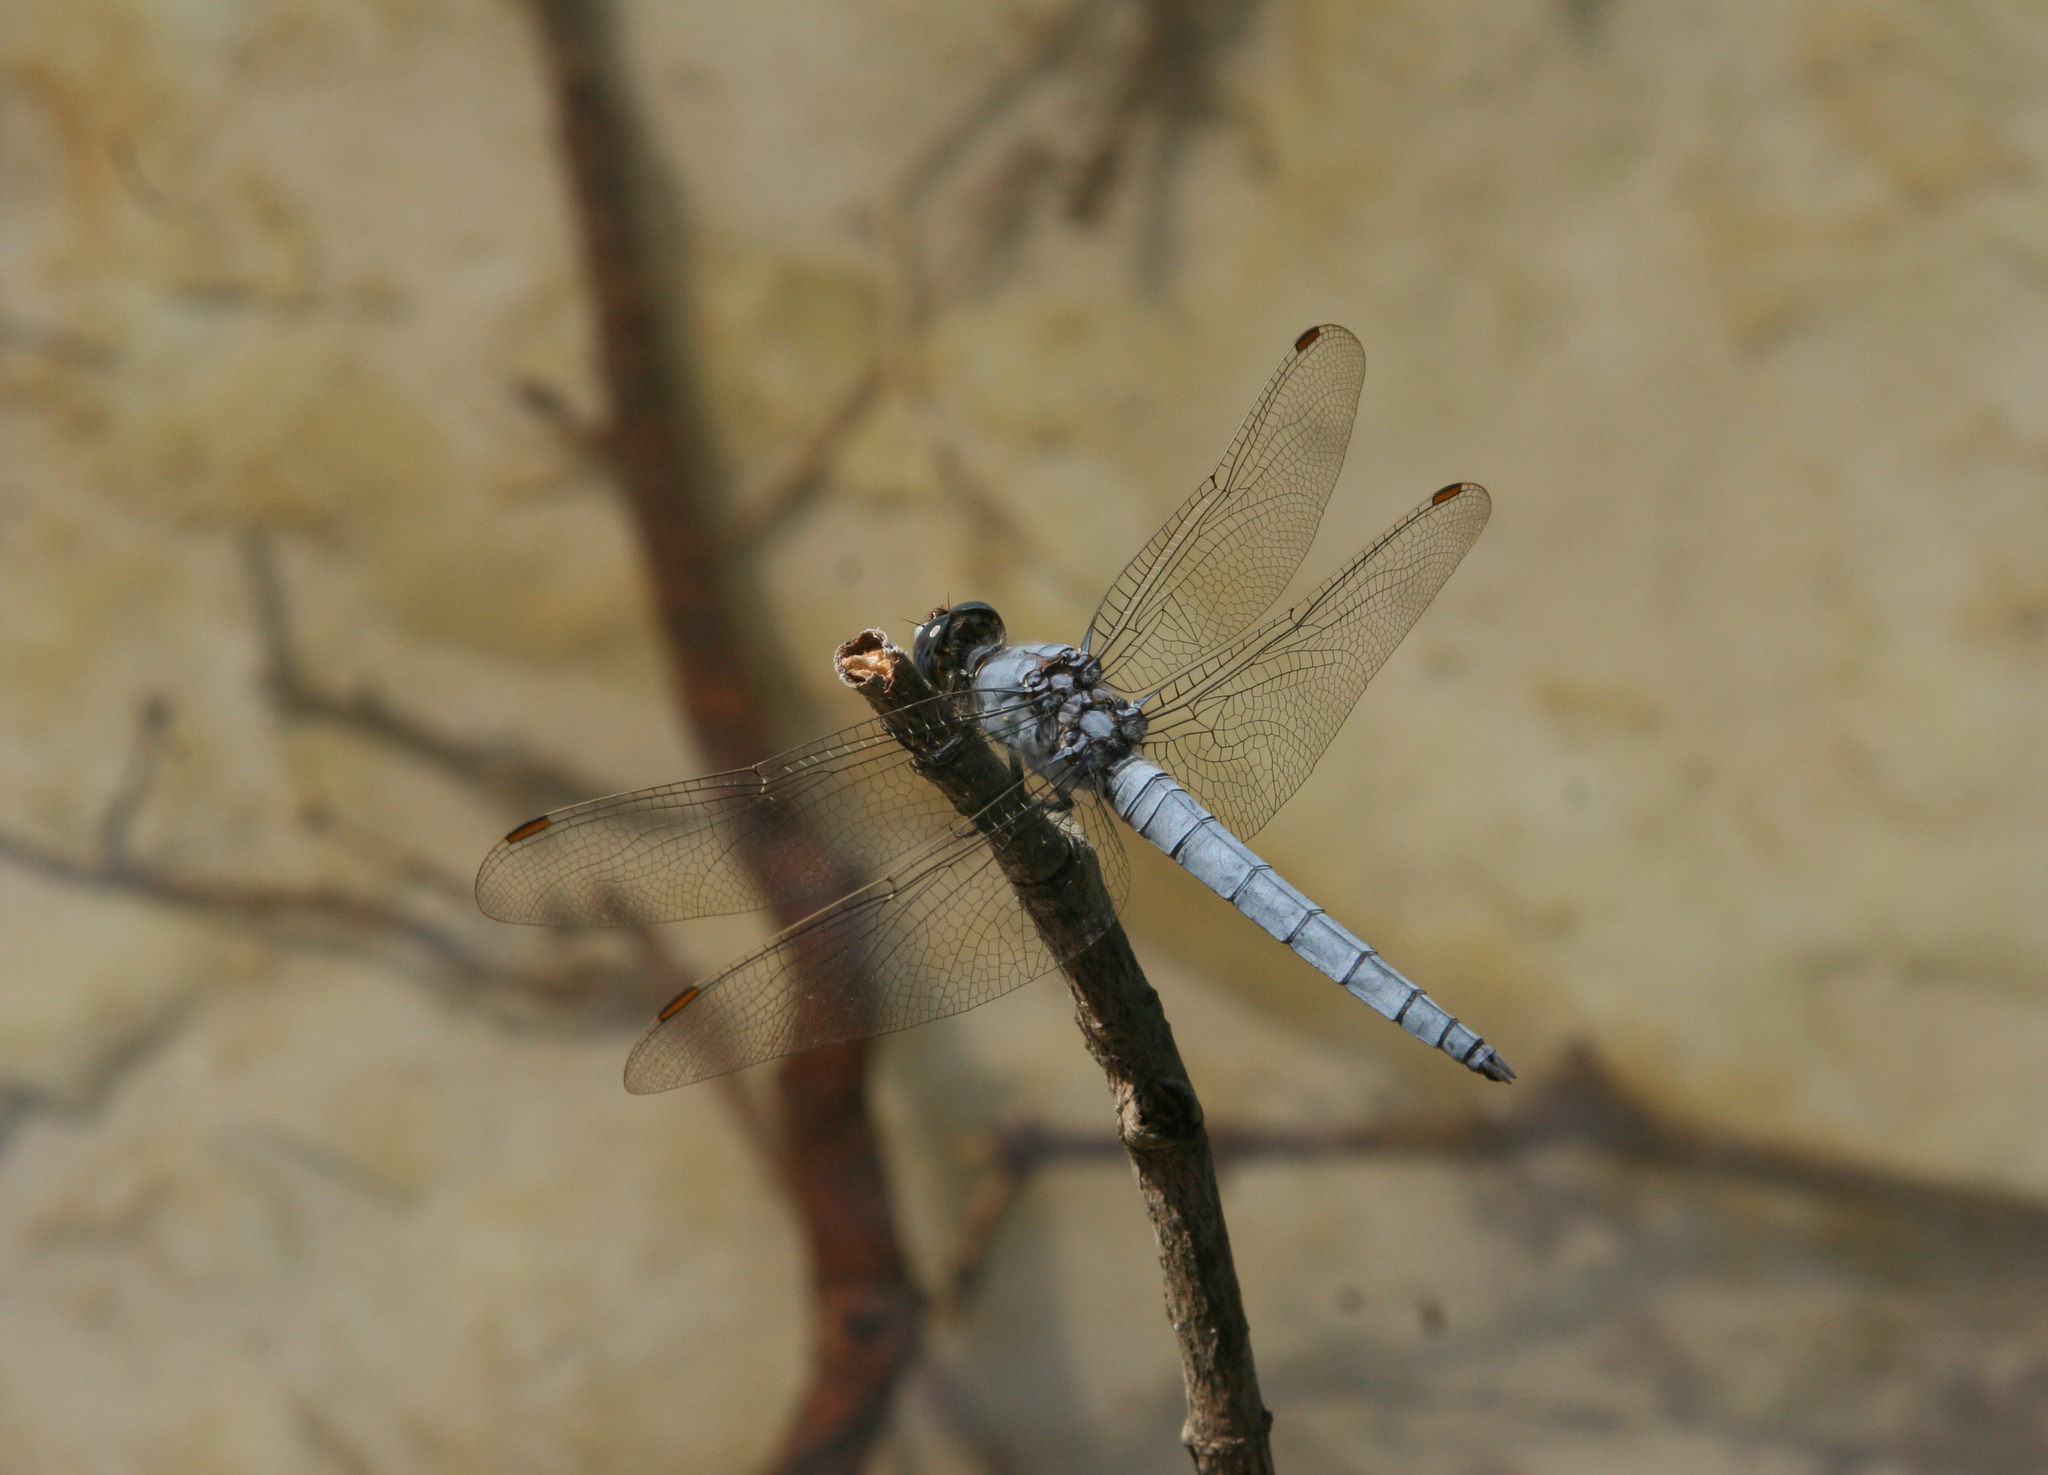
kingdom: Animalia
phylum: Arthropoda
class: Insecta
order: Odonata
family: Libellulidae
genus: Orthetrum
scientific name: Orthetrum brunneum
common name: Southern skimmer
